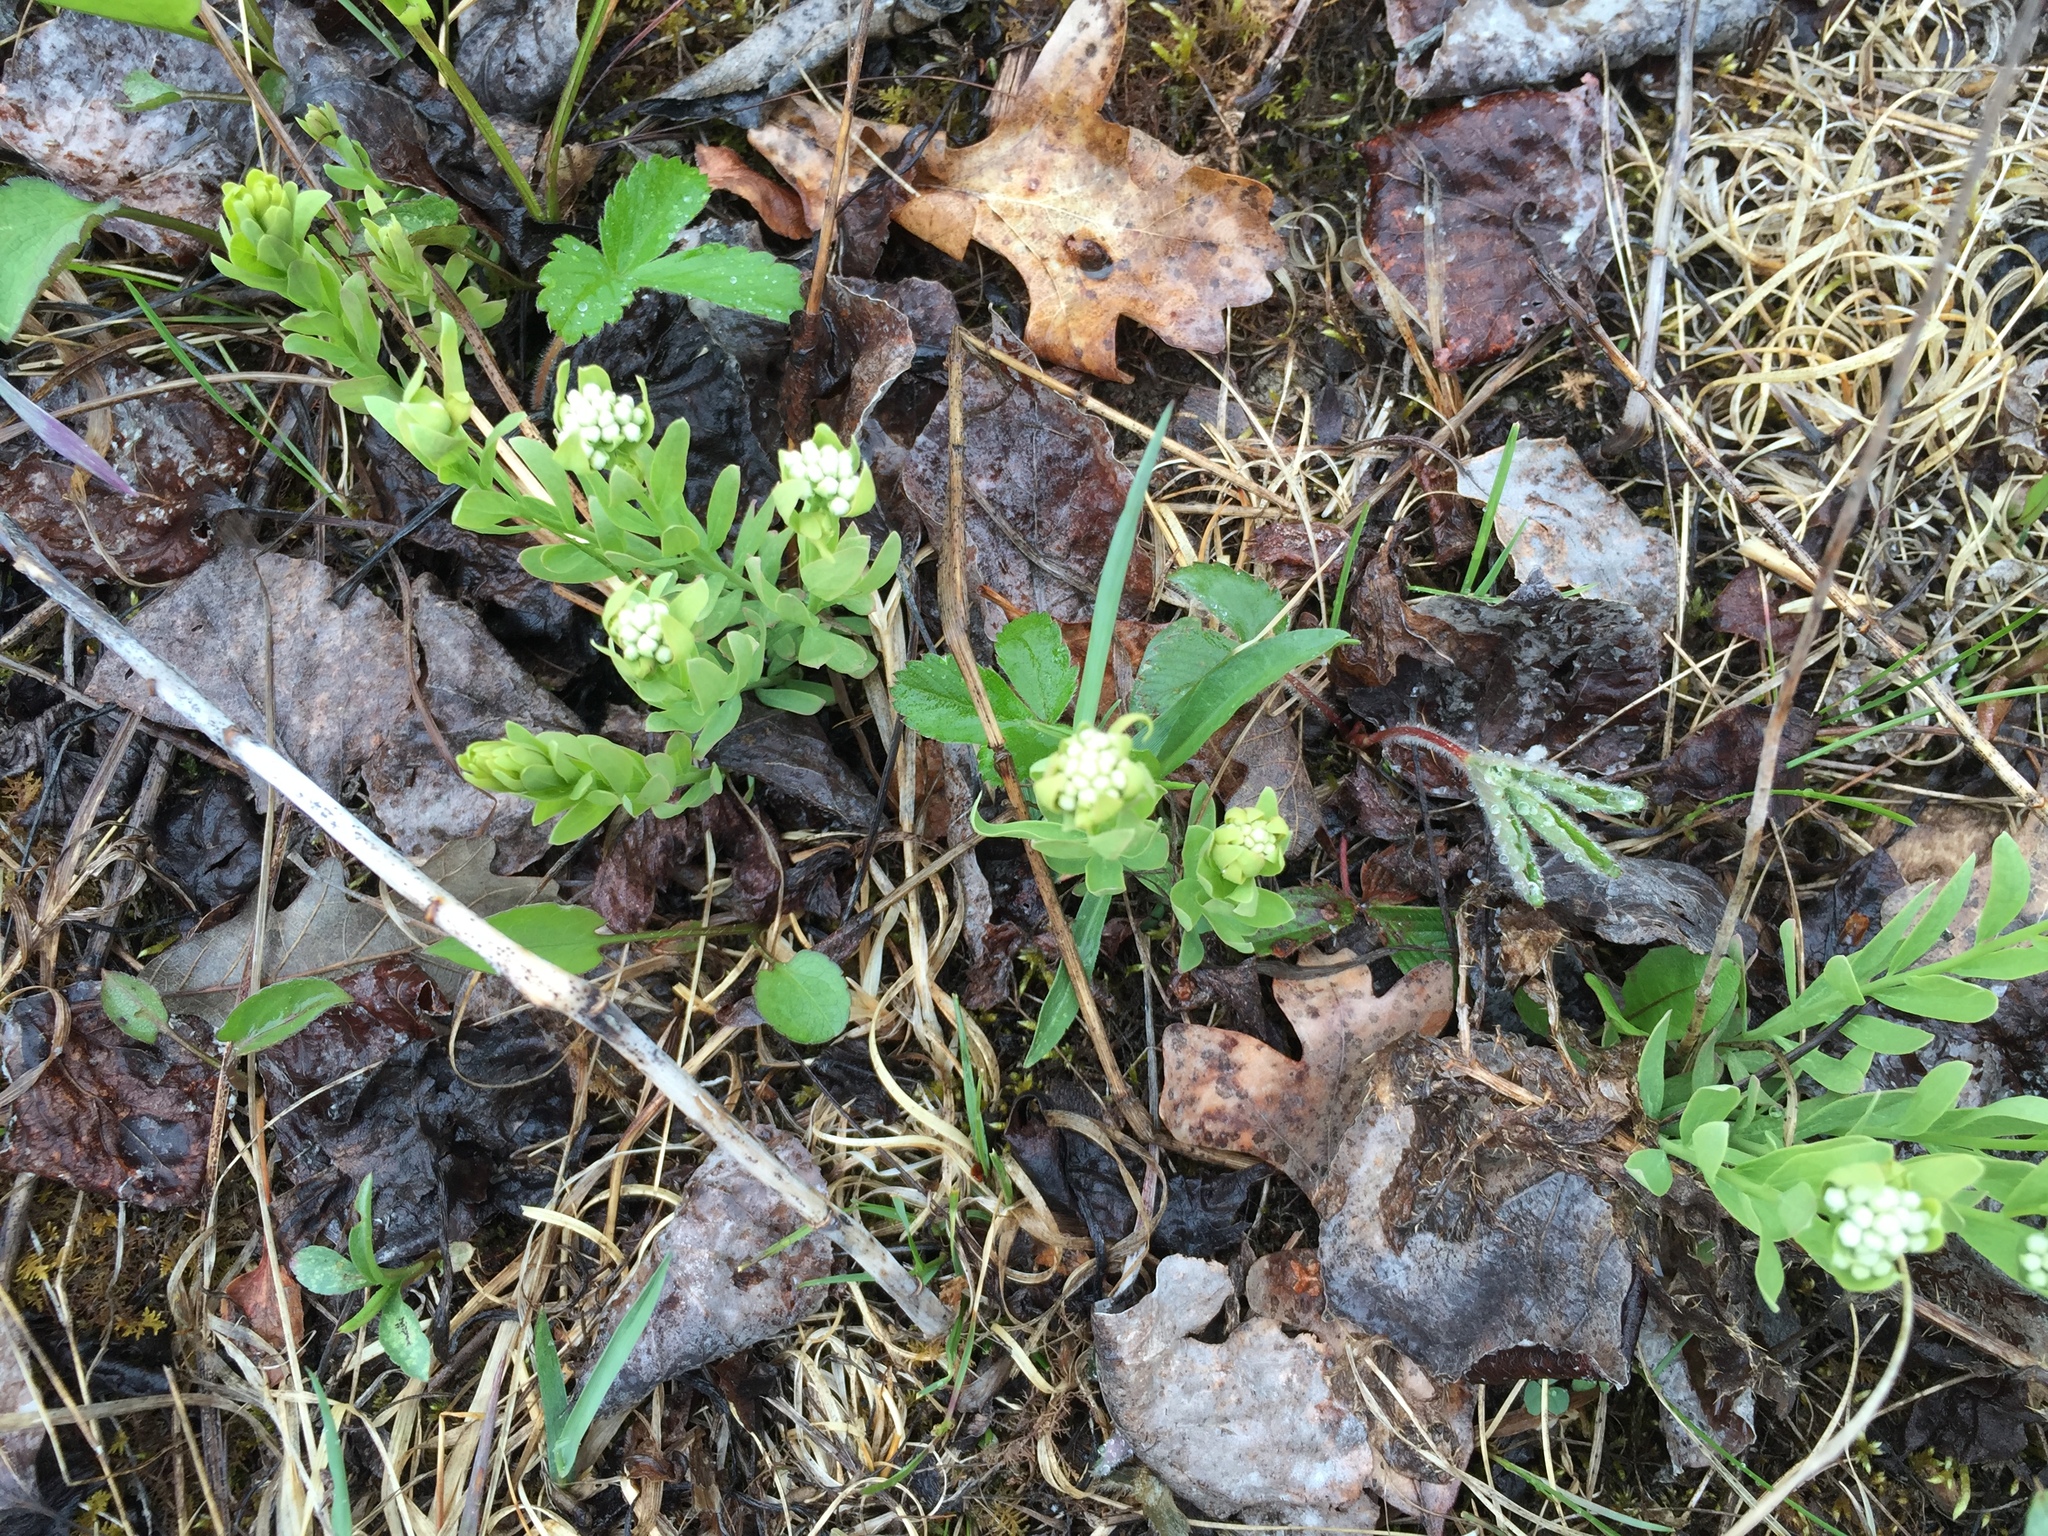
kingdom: Plantae
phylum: Tracheophyta
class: Magnoliopsida
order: Santalales
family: Comandraceae
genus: Comandra
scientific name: Comandra umbellata
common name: Bastard toadflax
